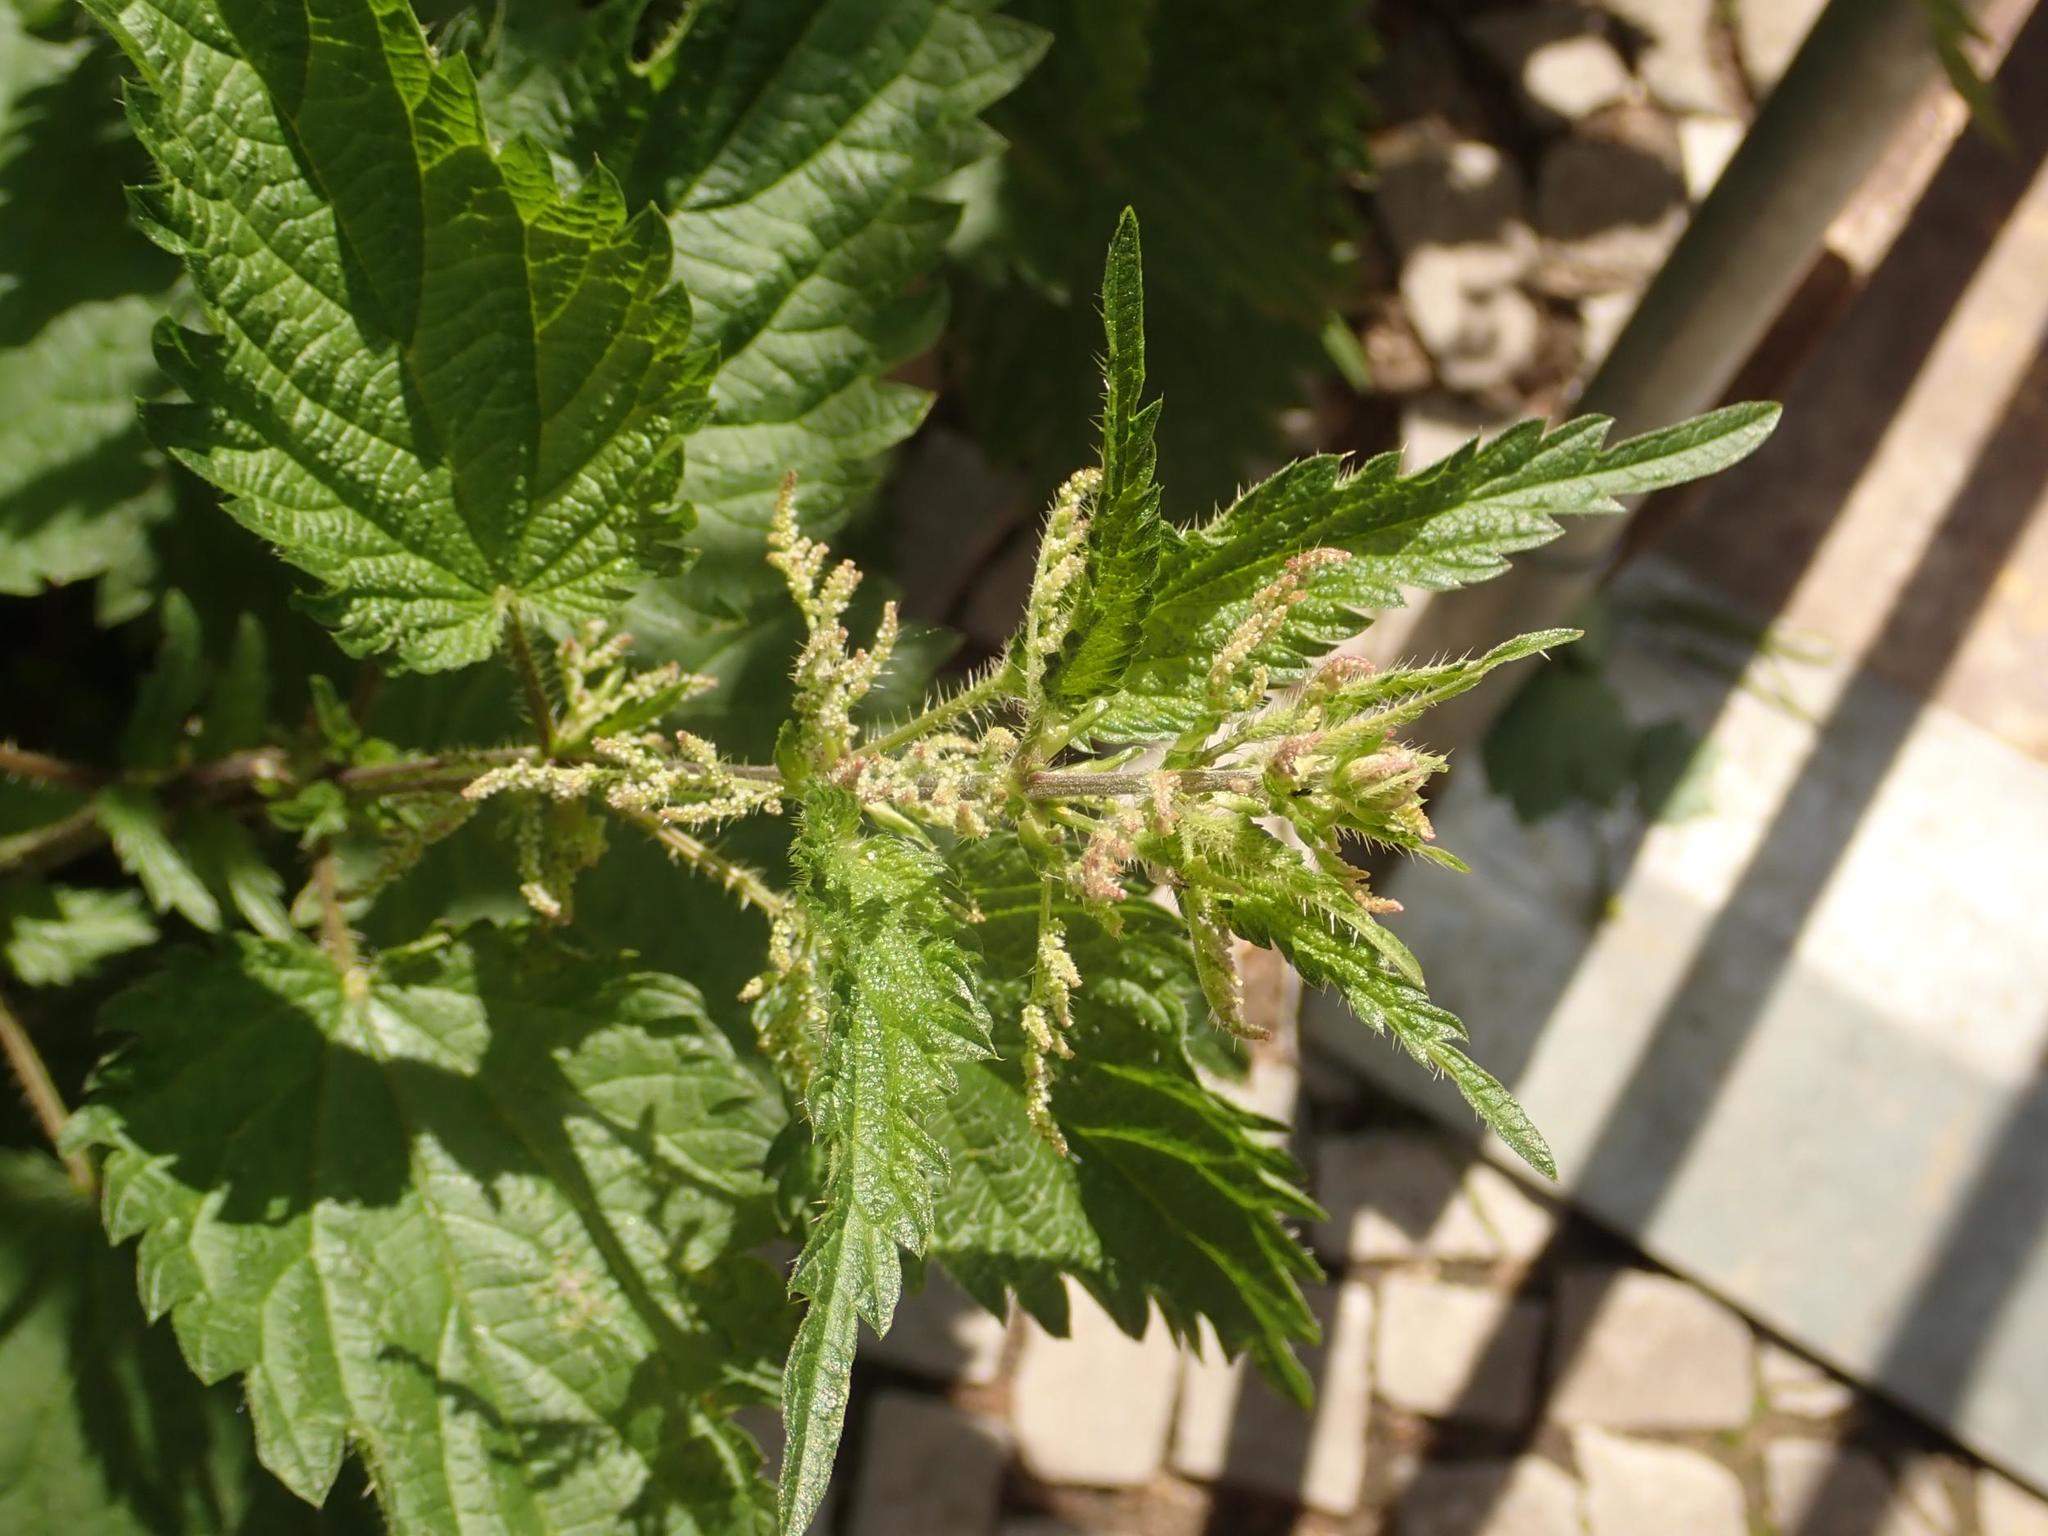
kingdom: Plantae
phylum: Tracheophyta
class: Magnoliopsida
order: Rosales
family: Urticaceae
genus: Urtica
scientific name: Urtica dioica
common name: Common nettle
